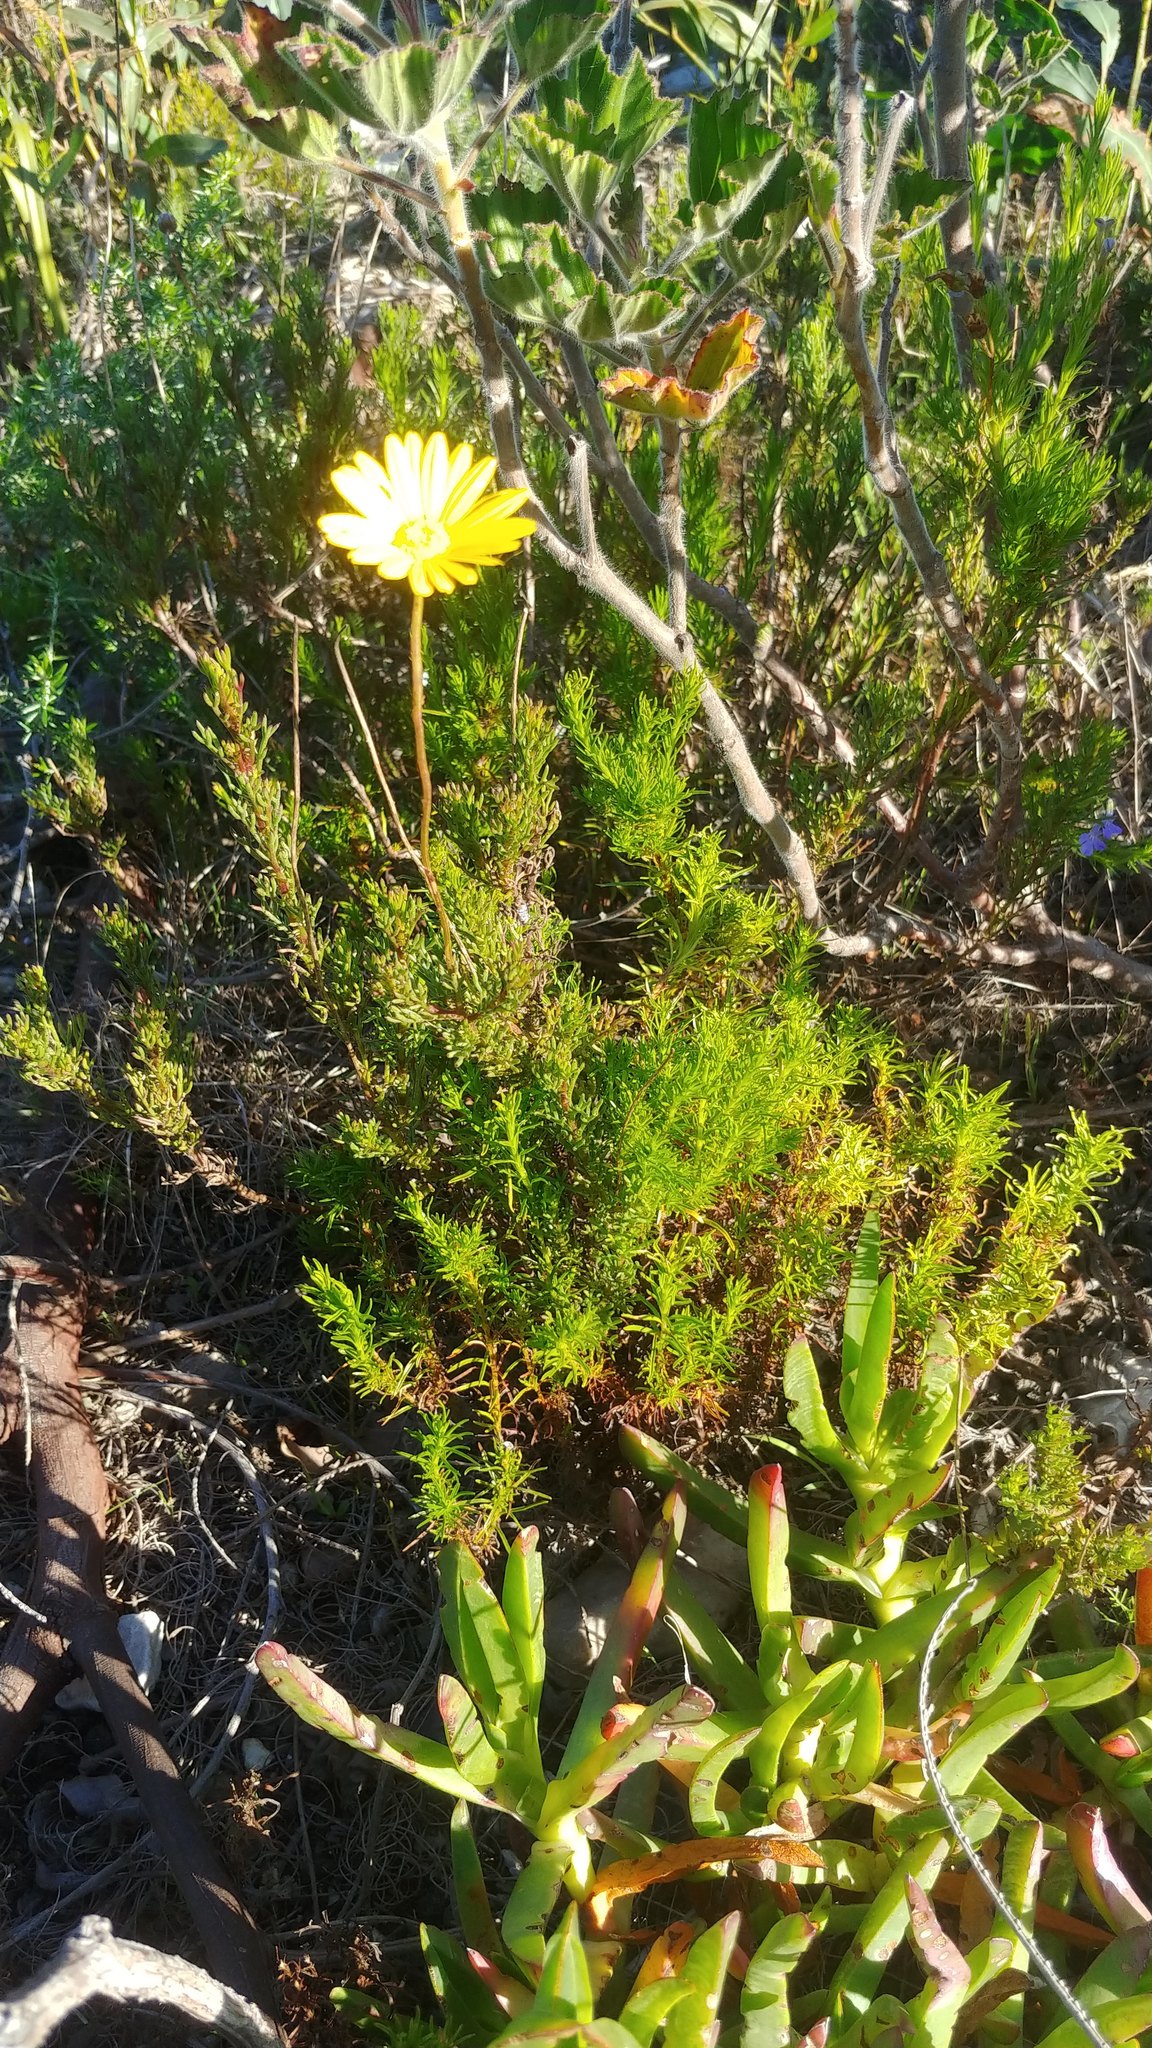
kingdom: Plantae
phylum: Tracheophyta
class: Magnoliopsida
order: Asterales
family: Asteraceae
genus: Ursinia
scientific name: Ursinia paleacea
